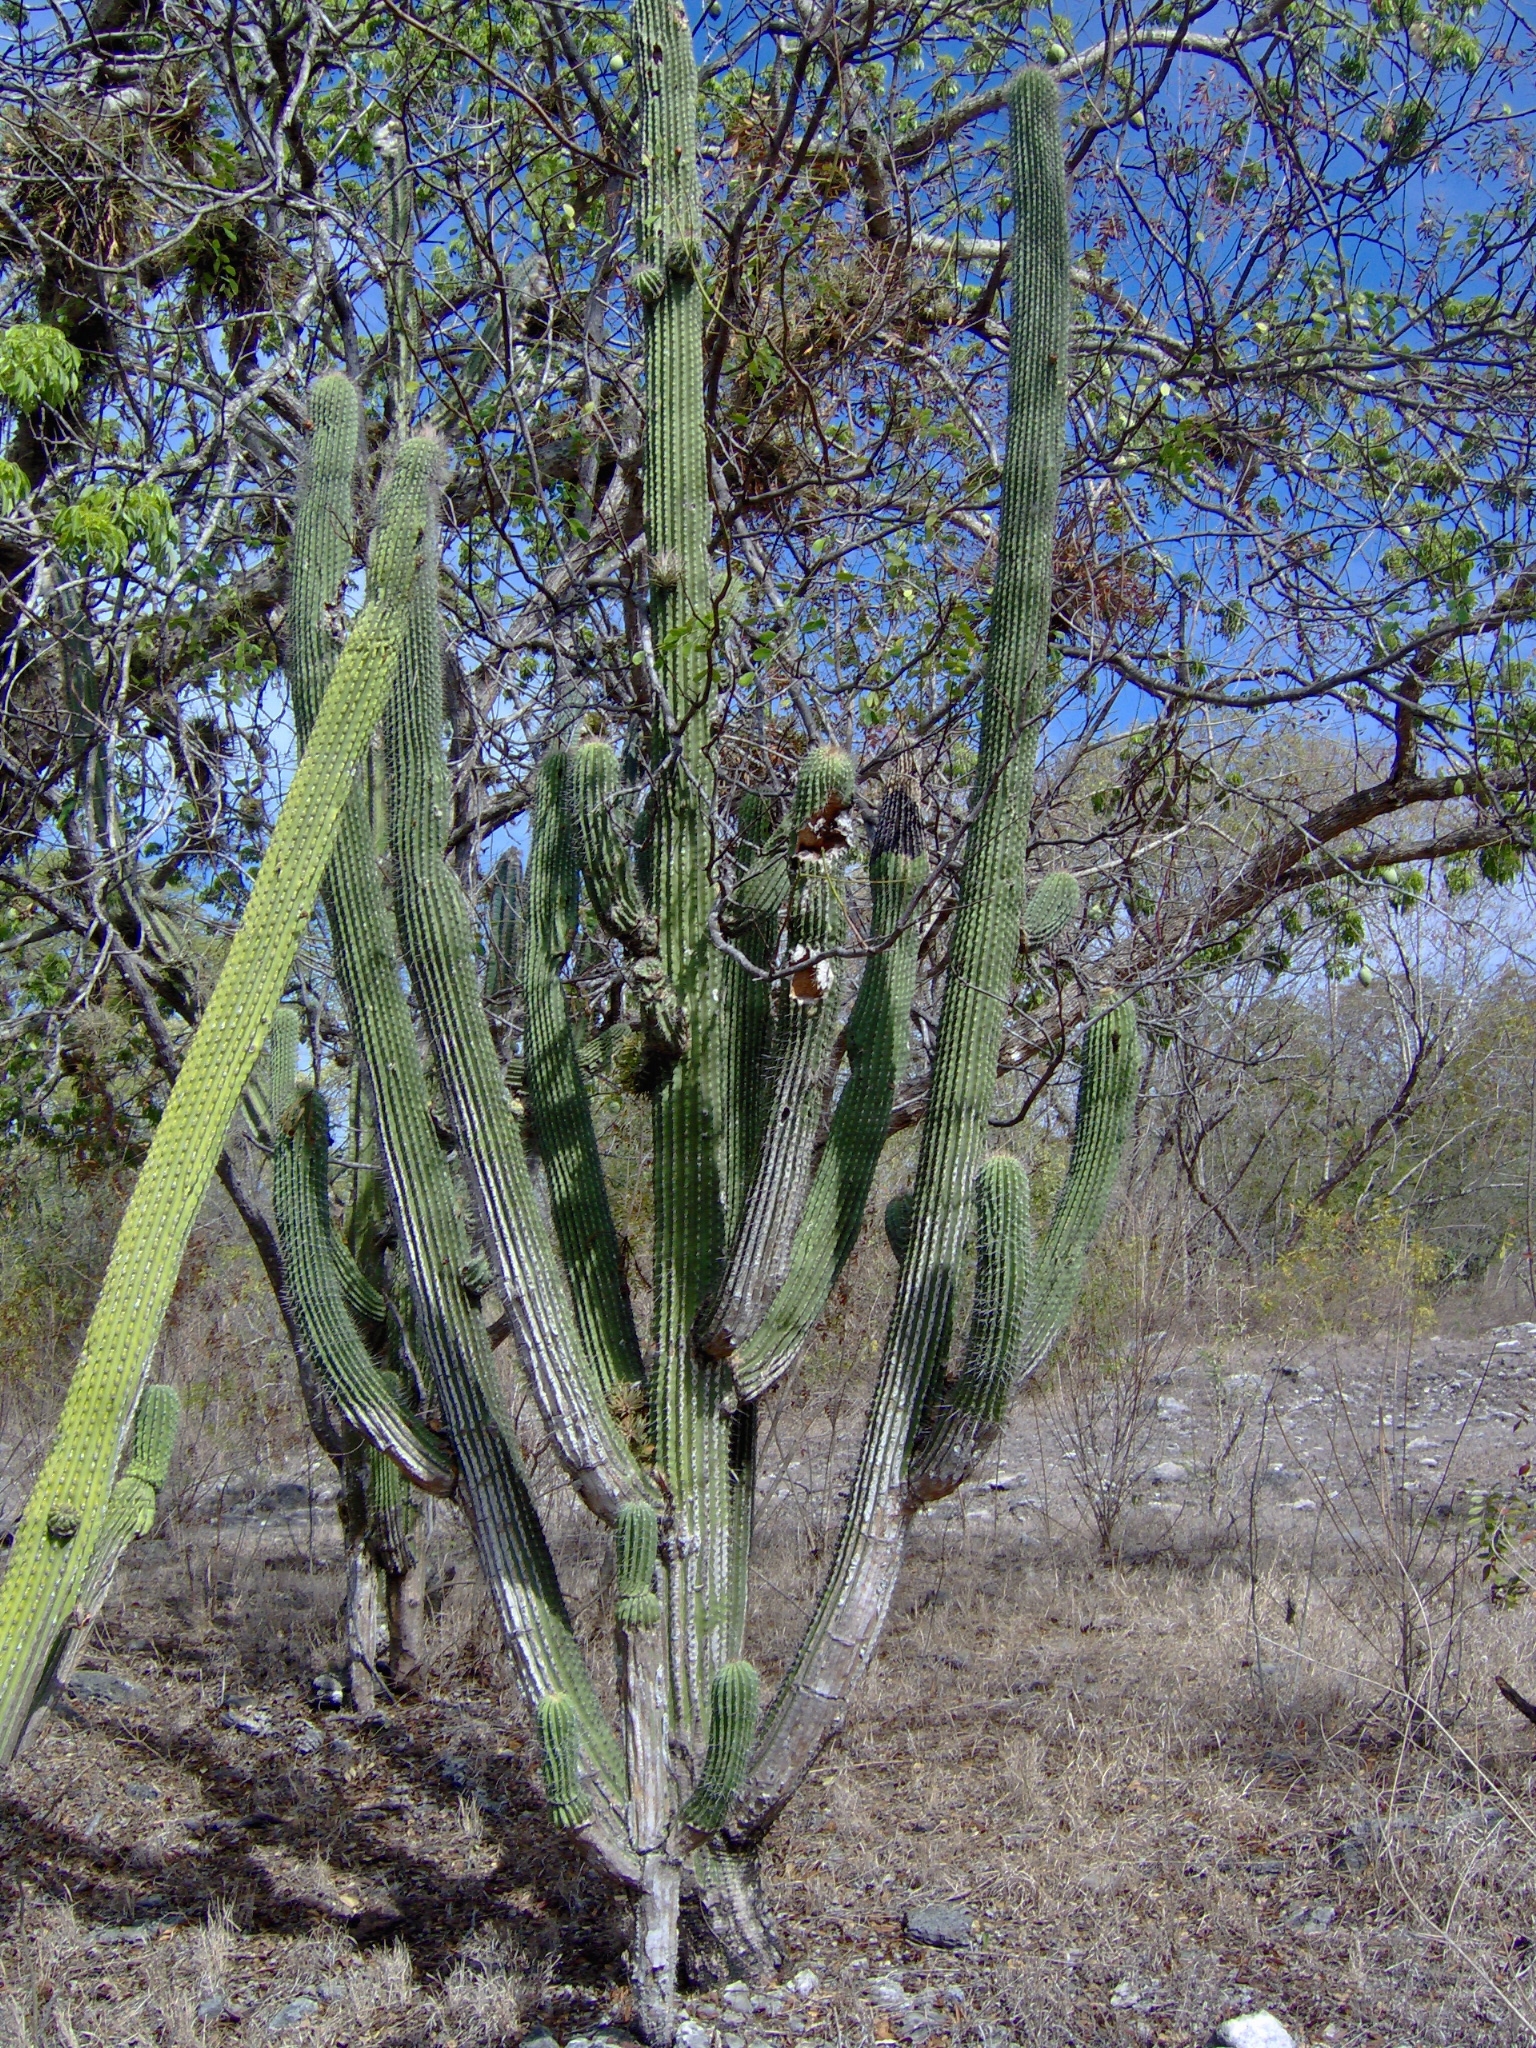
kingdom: Plantae
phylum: Tracheophyta
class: Magnoliopsida
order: Caryophyllales
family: Cactaceae
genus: Cephalocereus
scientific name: Cephalocereus scoparius
